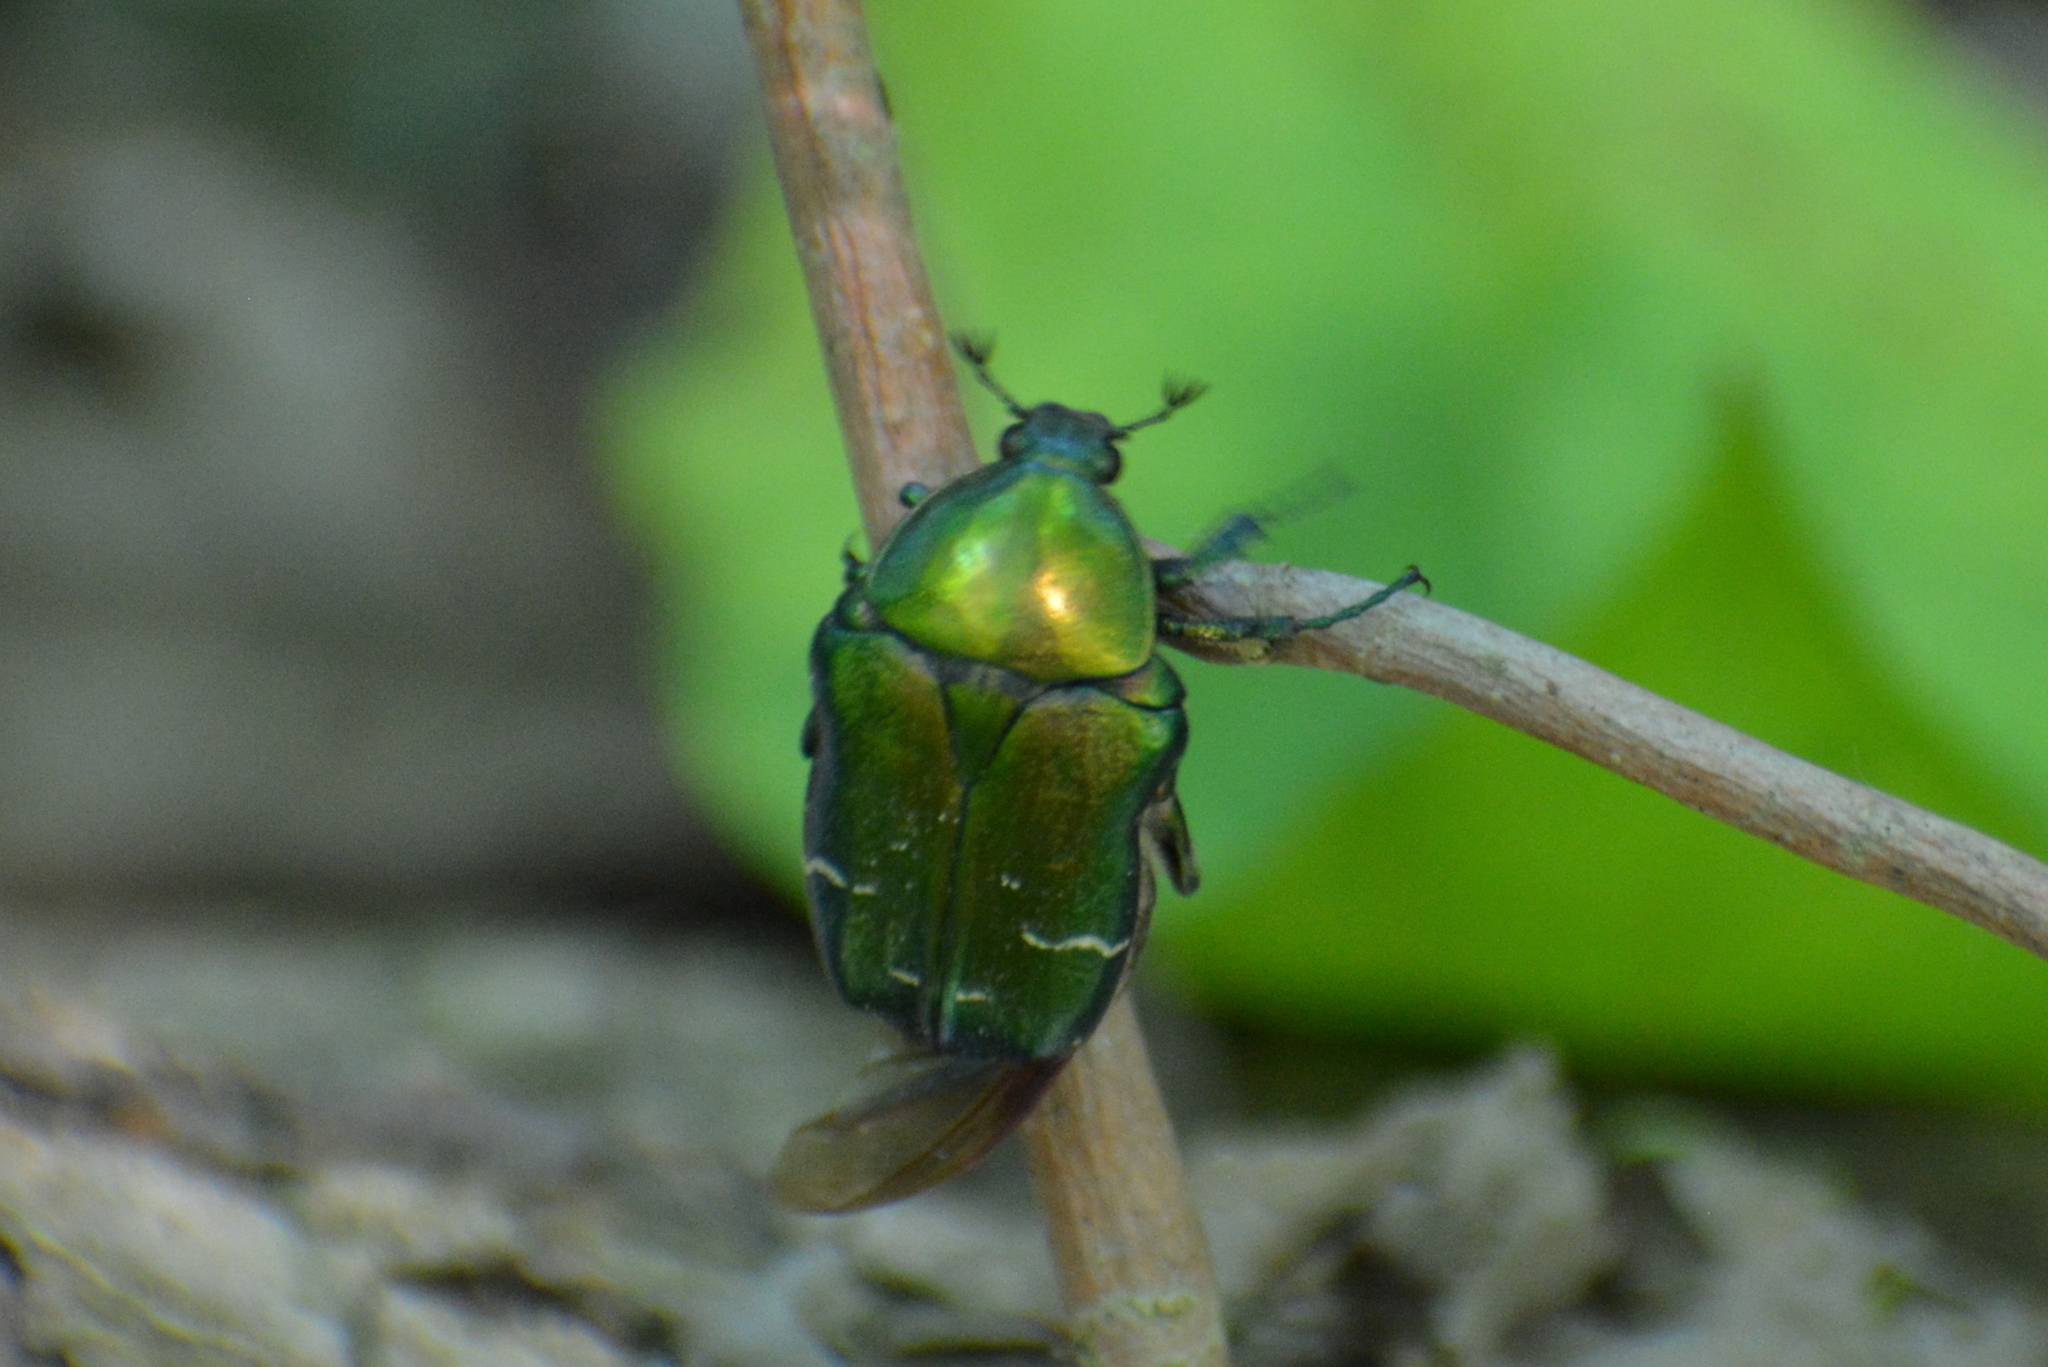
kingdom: Animalia
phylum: Arthropoda
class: Insecta
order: Coleoptera
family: Scarabaeidae
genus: Cetonia
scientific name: Cetonia aurata
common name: Rose chafer
